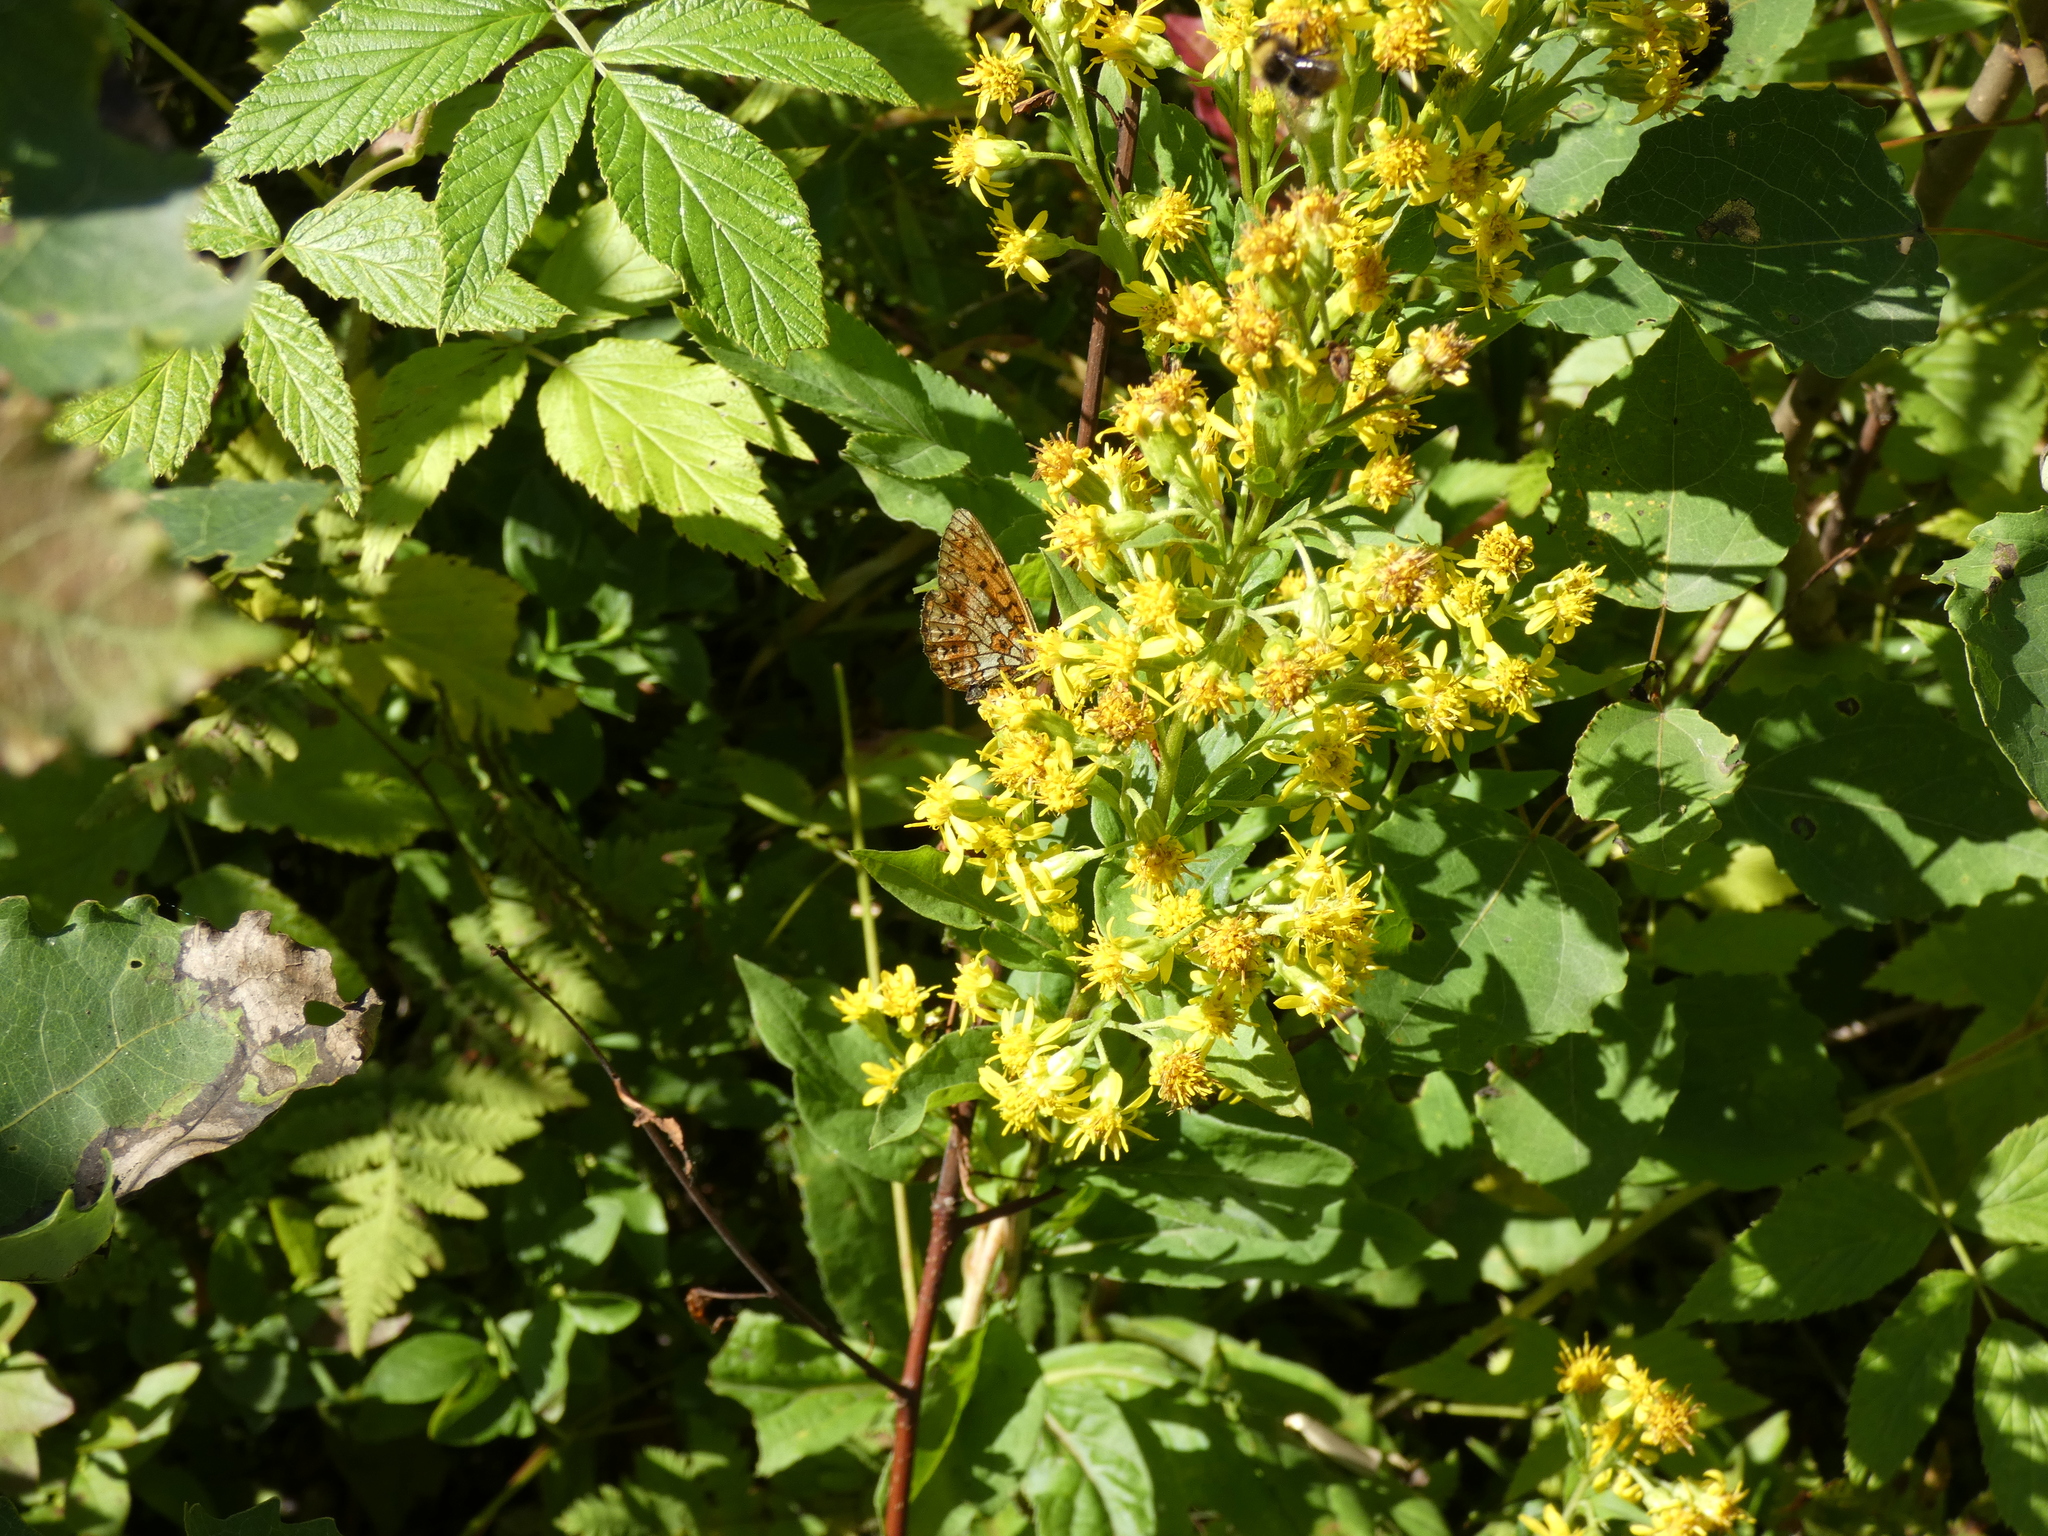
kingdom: Animalia
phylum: Arthropoda
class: Insecta
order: Lepidoptera
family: Nymphalidae
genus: Boloria
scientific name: Boloria selene
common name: Small pearl-bordered fritillary
